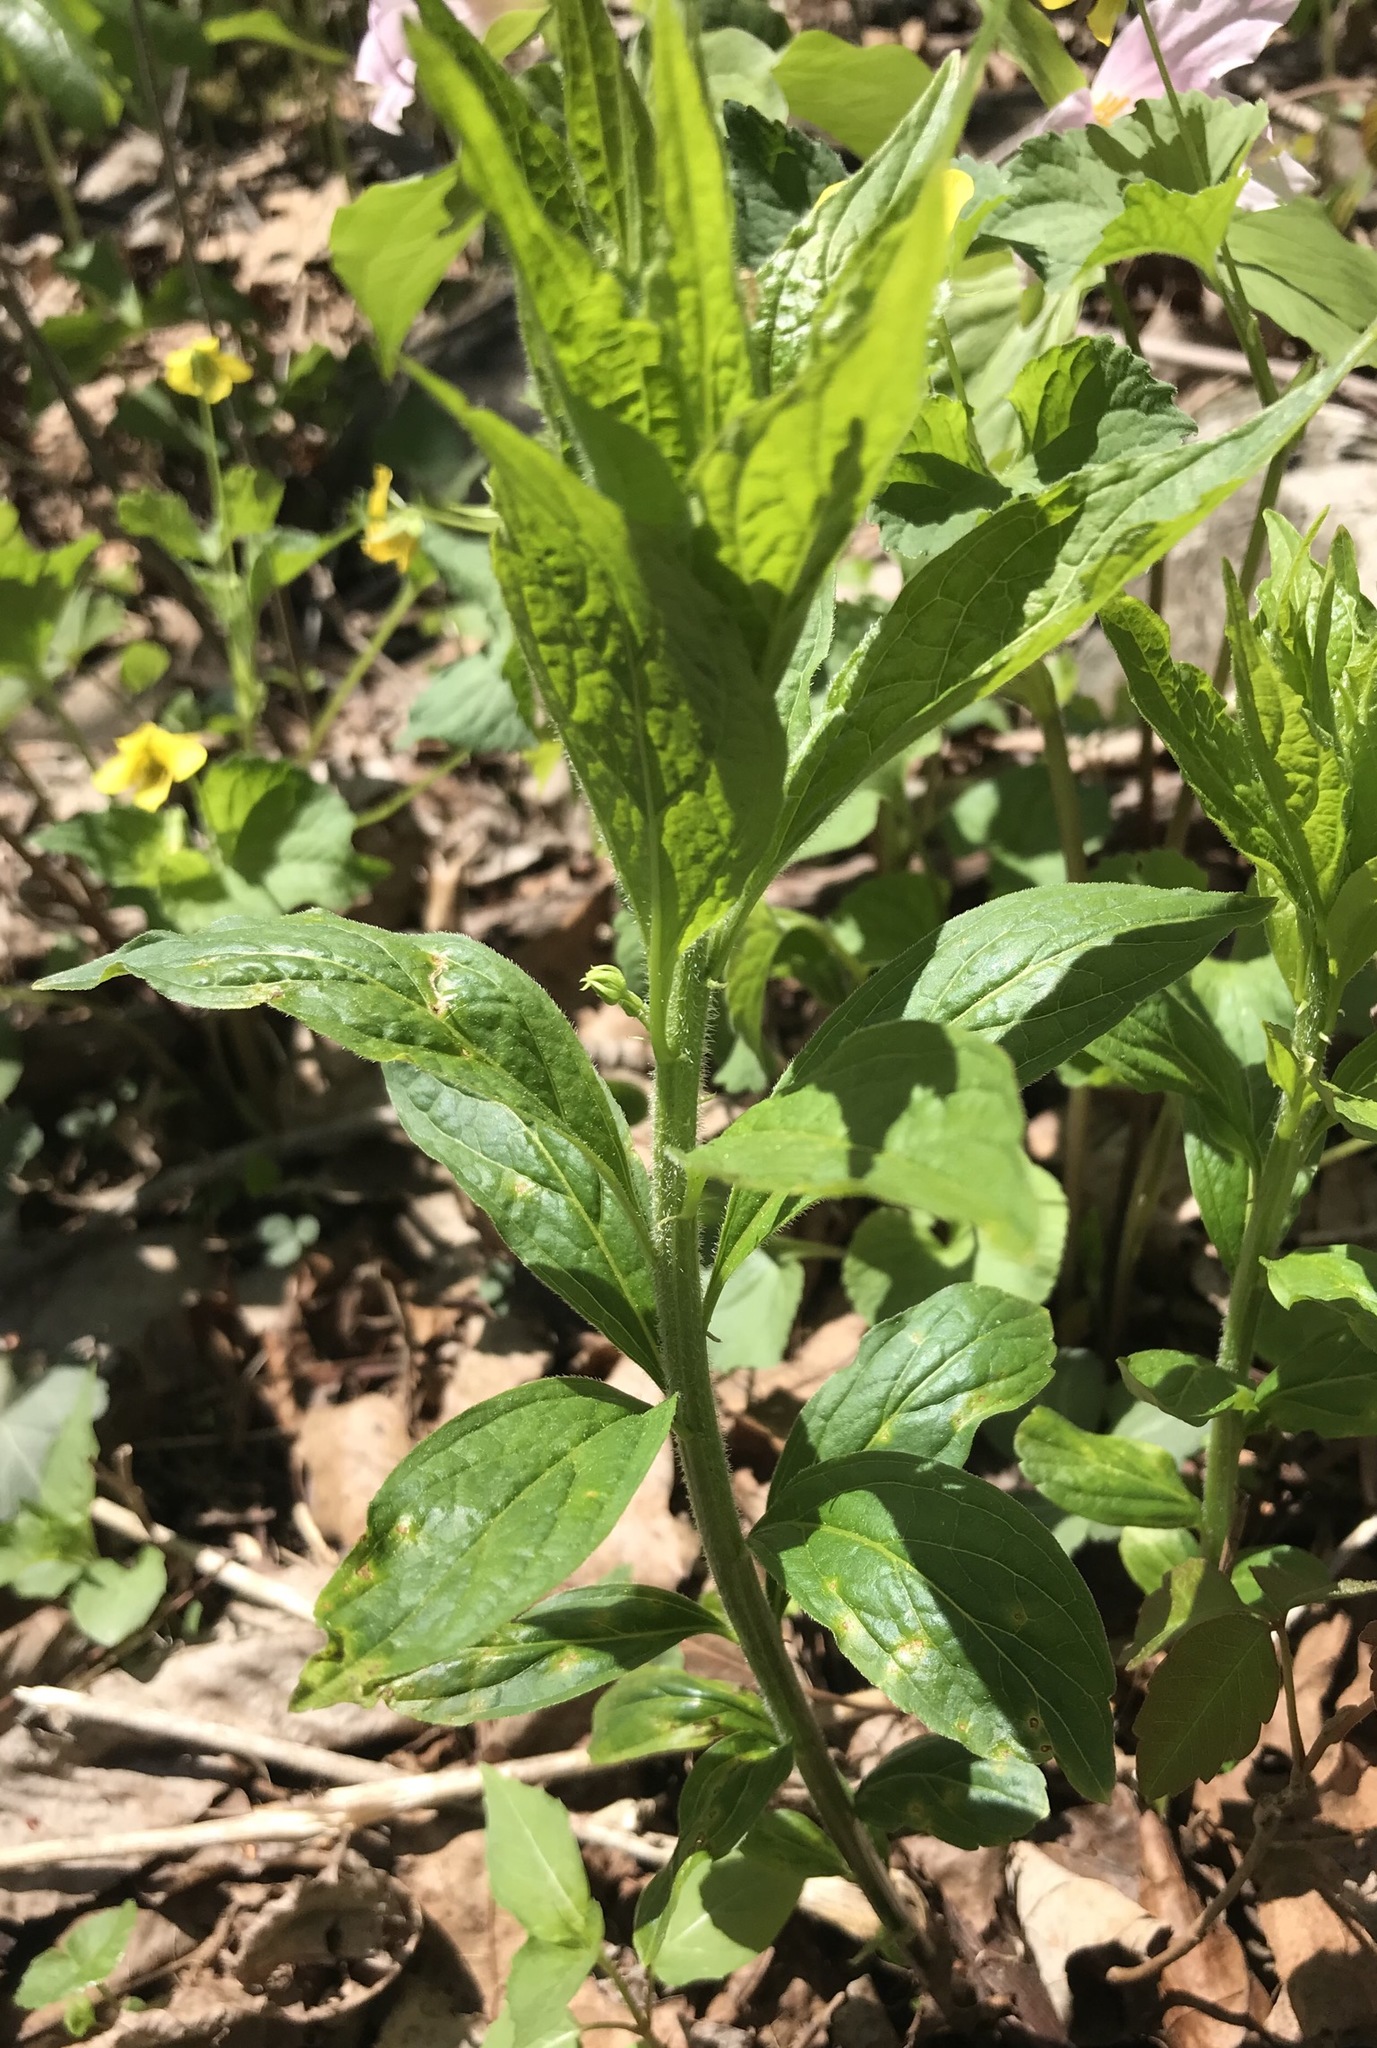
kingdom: Plantae
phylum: Tracheophyta
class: Magnoliopsida
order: Malpighiales
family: Violaceae
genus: Cubelium
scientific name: Cubelium concolor
